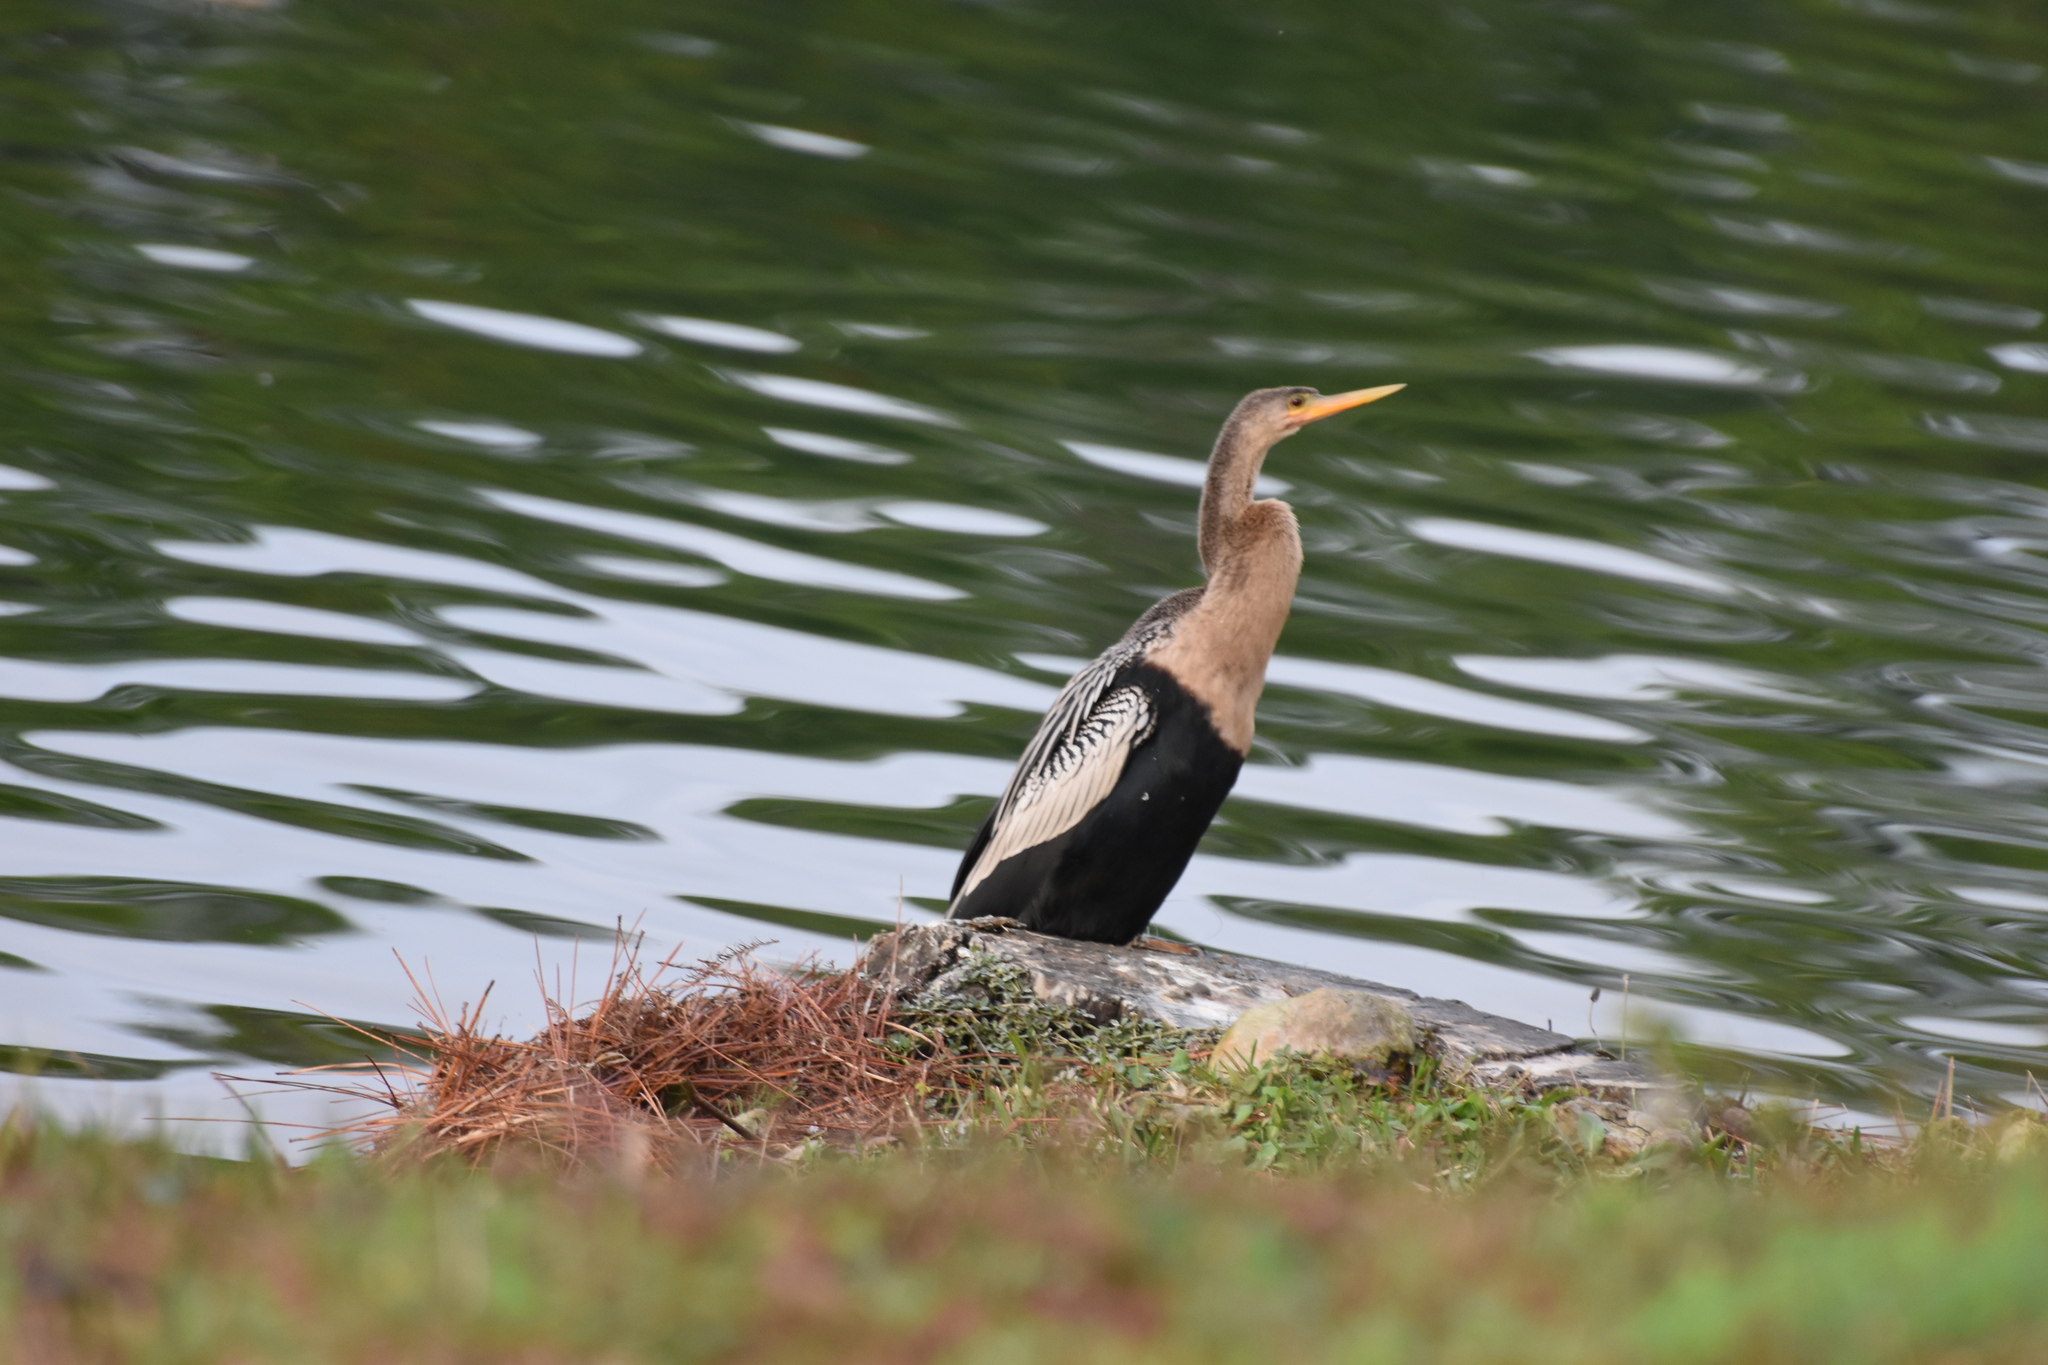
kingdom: Animalia
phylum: Chordata
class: Aves
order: Suliformes
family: Anhingidae
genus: Anhinga
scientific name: Anhinga anhinga
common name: Anhinga
